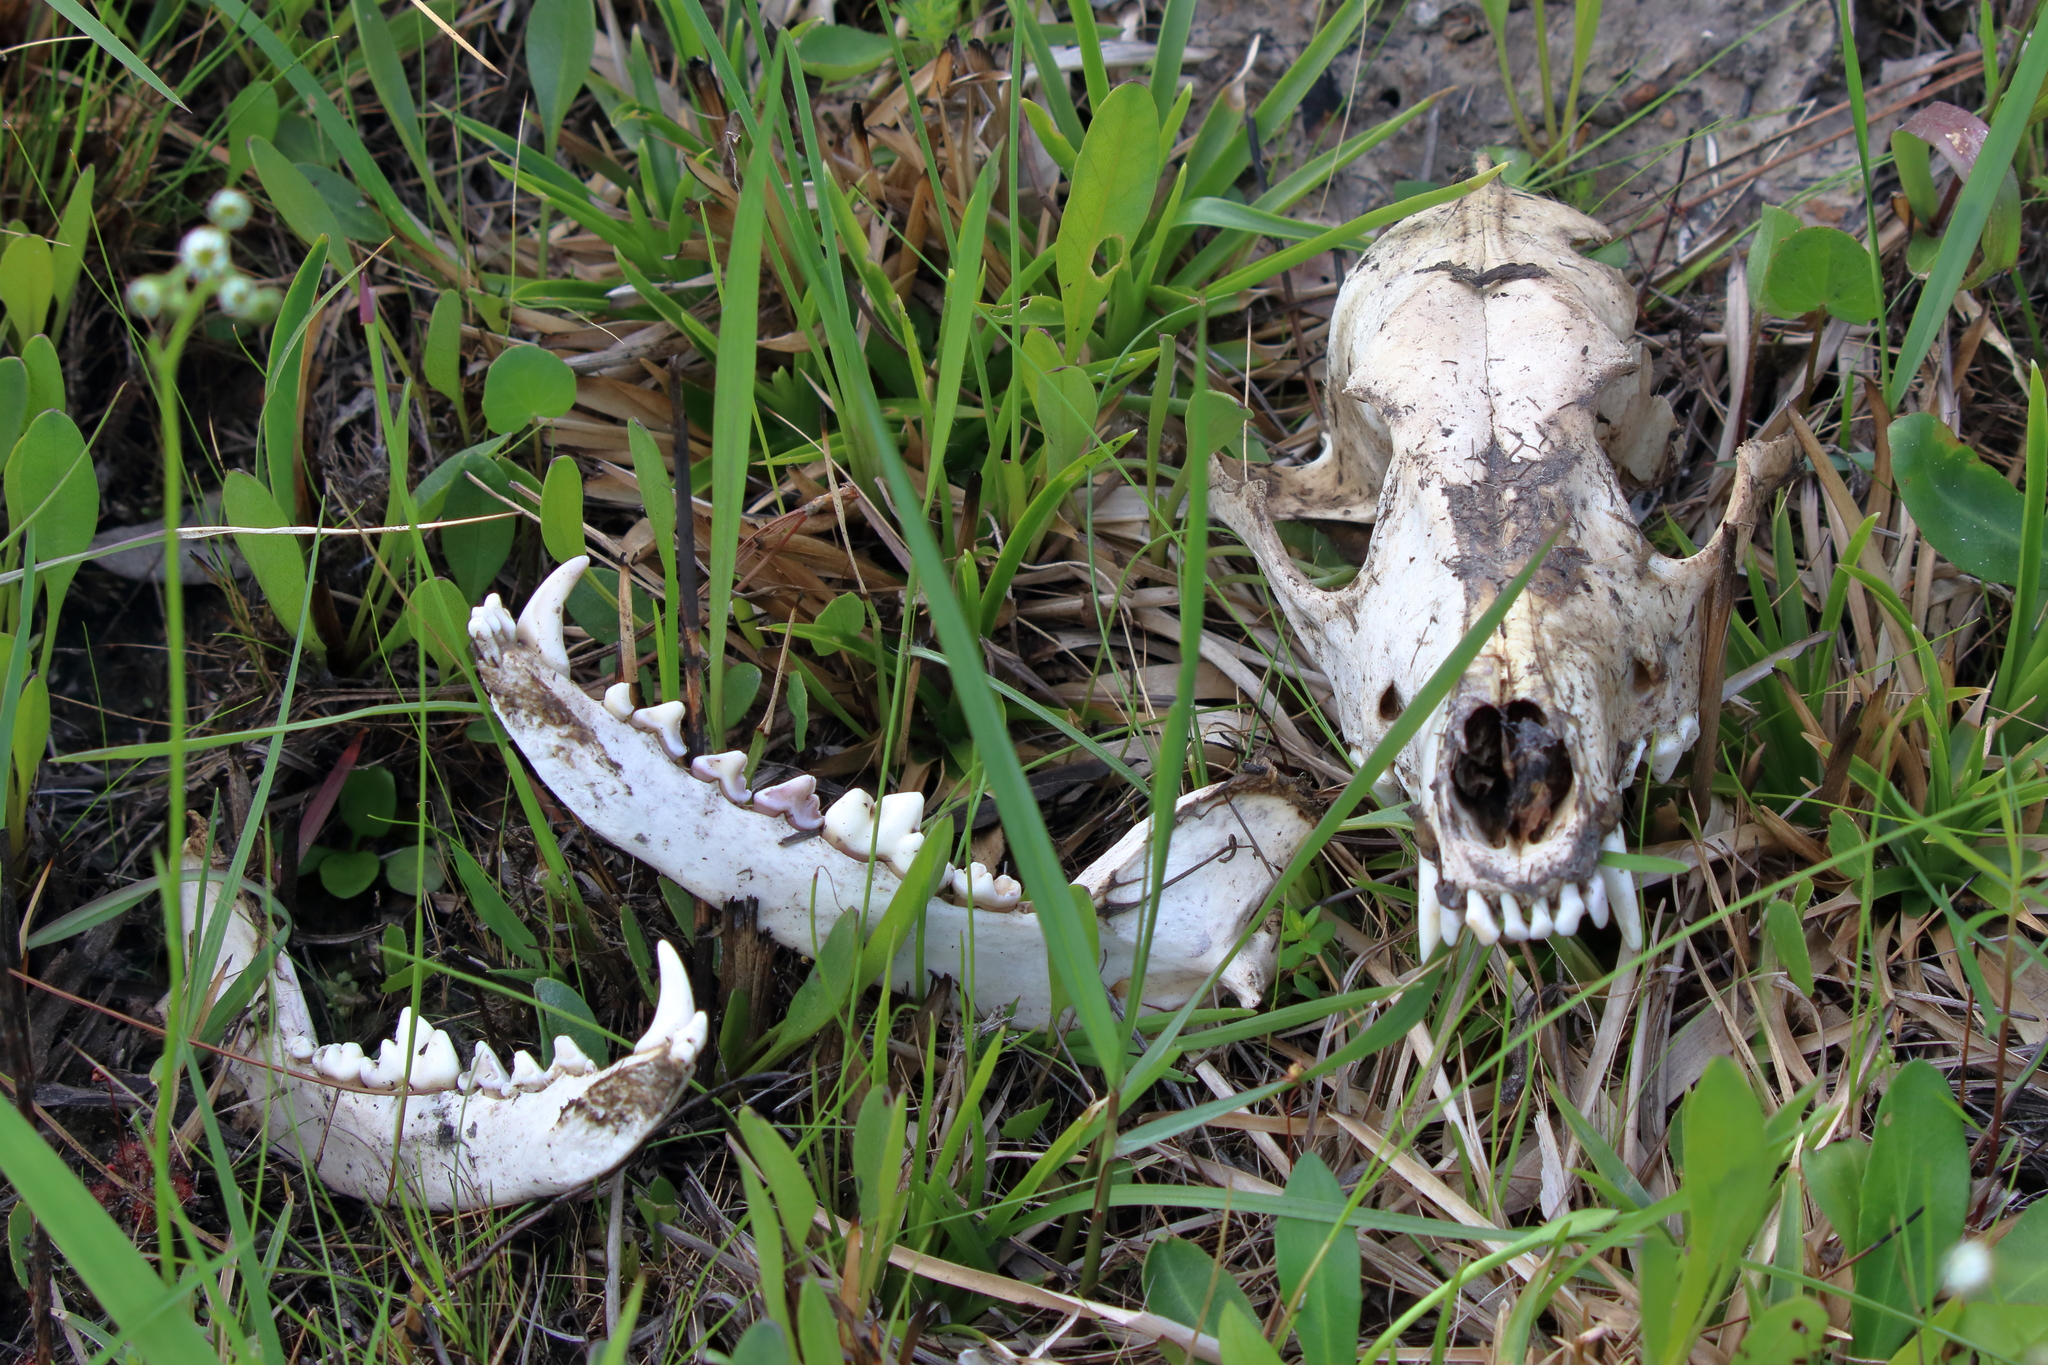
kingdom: Animalia
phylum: Chordata
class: Mammalia
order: Carnivora
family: Canidae
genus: Canis
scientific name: Canis latrans
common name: Coyote
